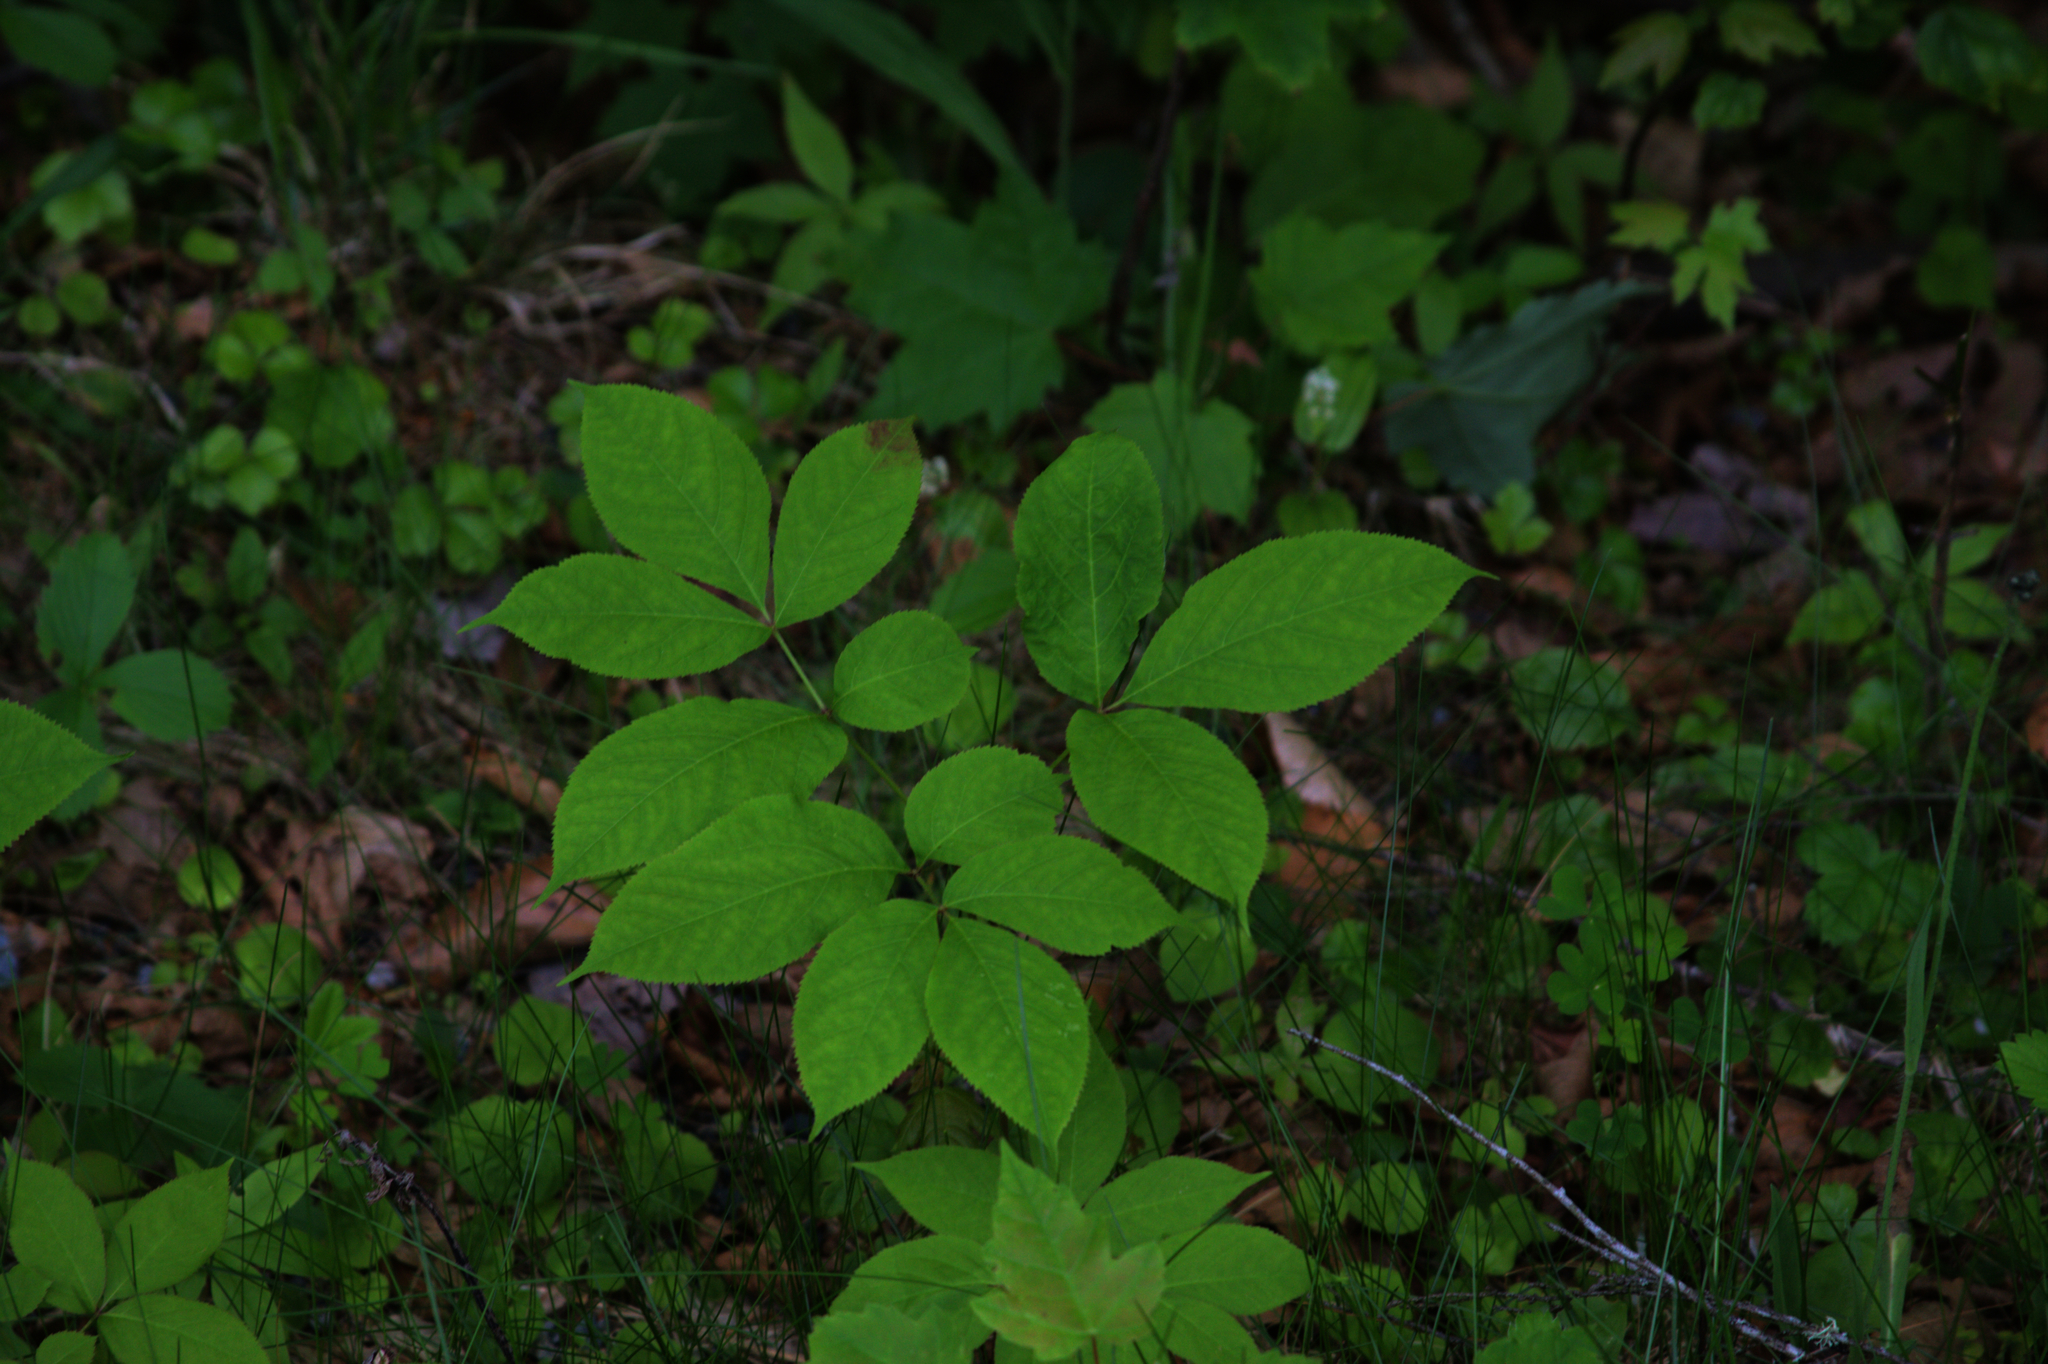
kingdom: Plantae
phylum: Tracheophyta
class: Magnoliopsida
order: Apiales
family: Araliaceae
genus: Aralia
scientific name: Aralia nudicaulis
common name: Wild sarsaparilla
